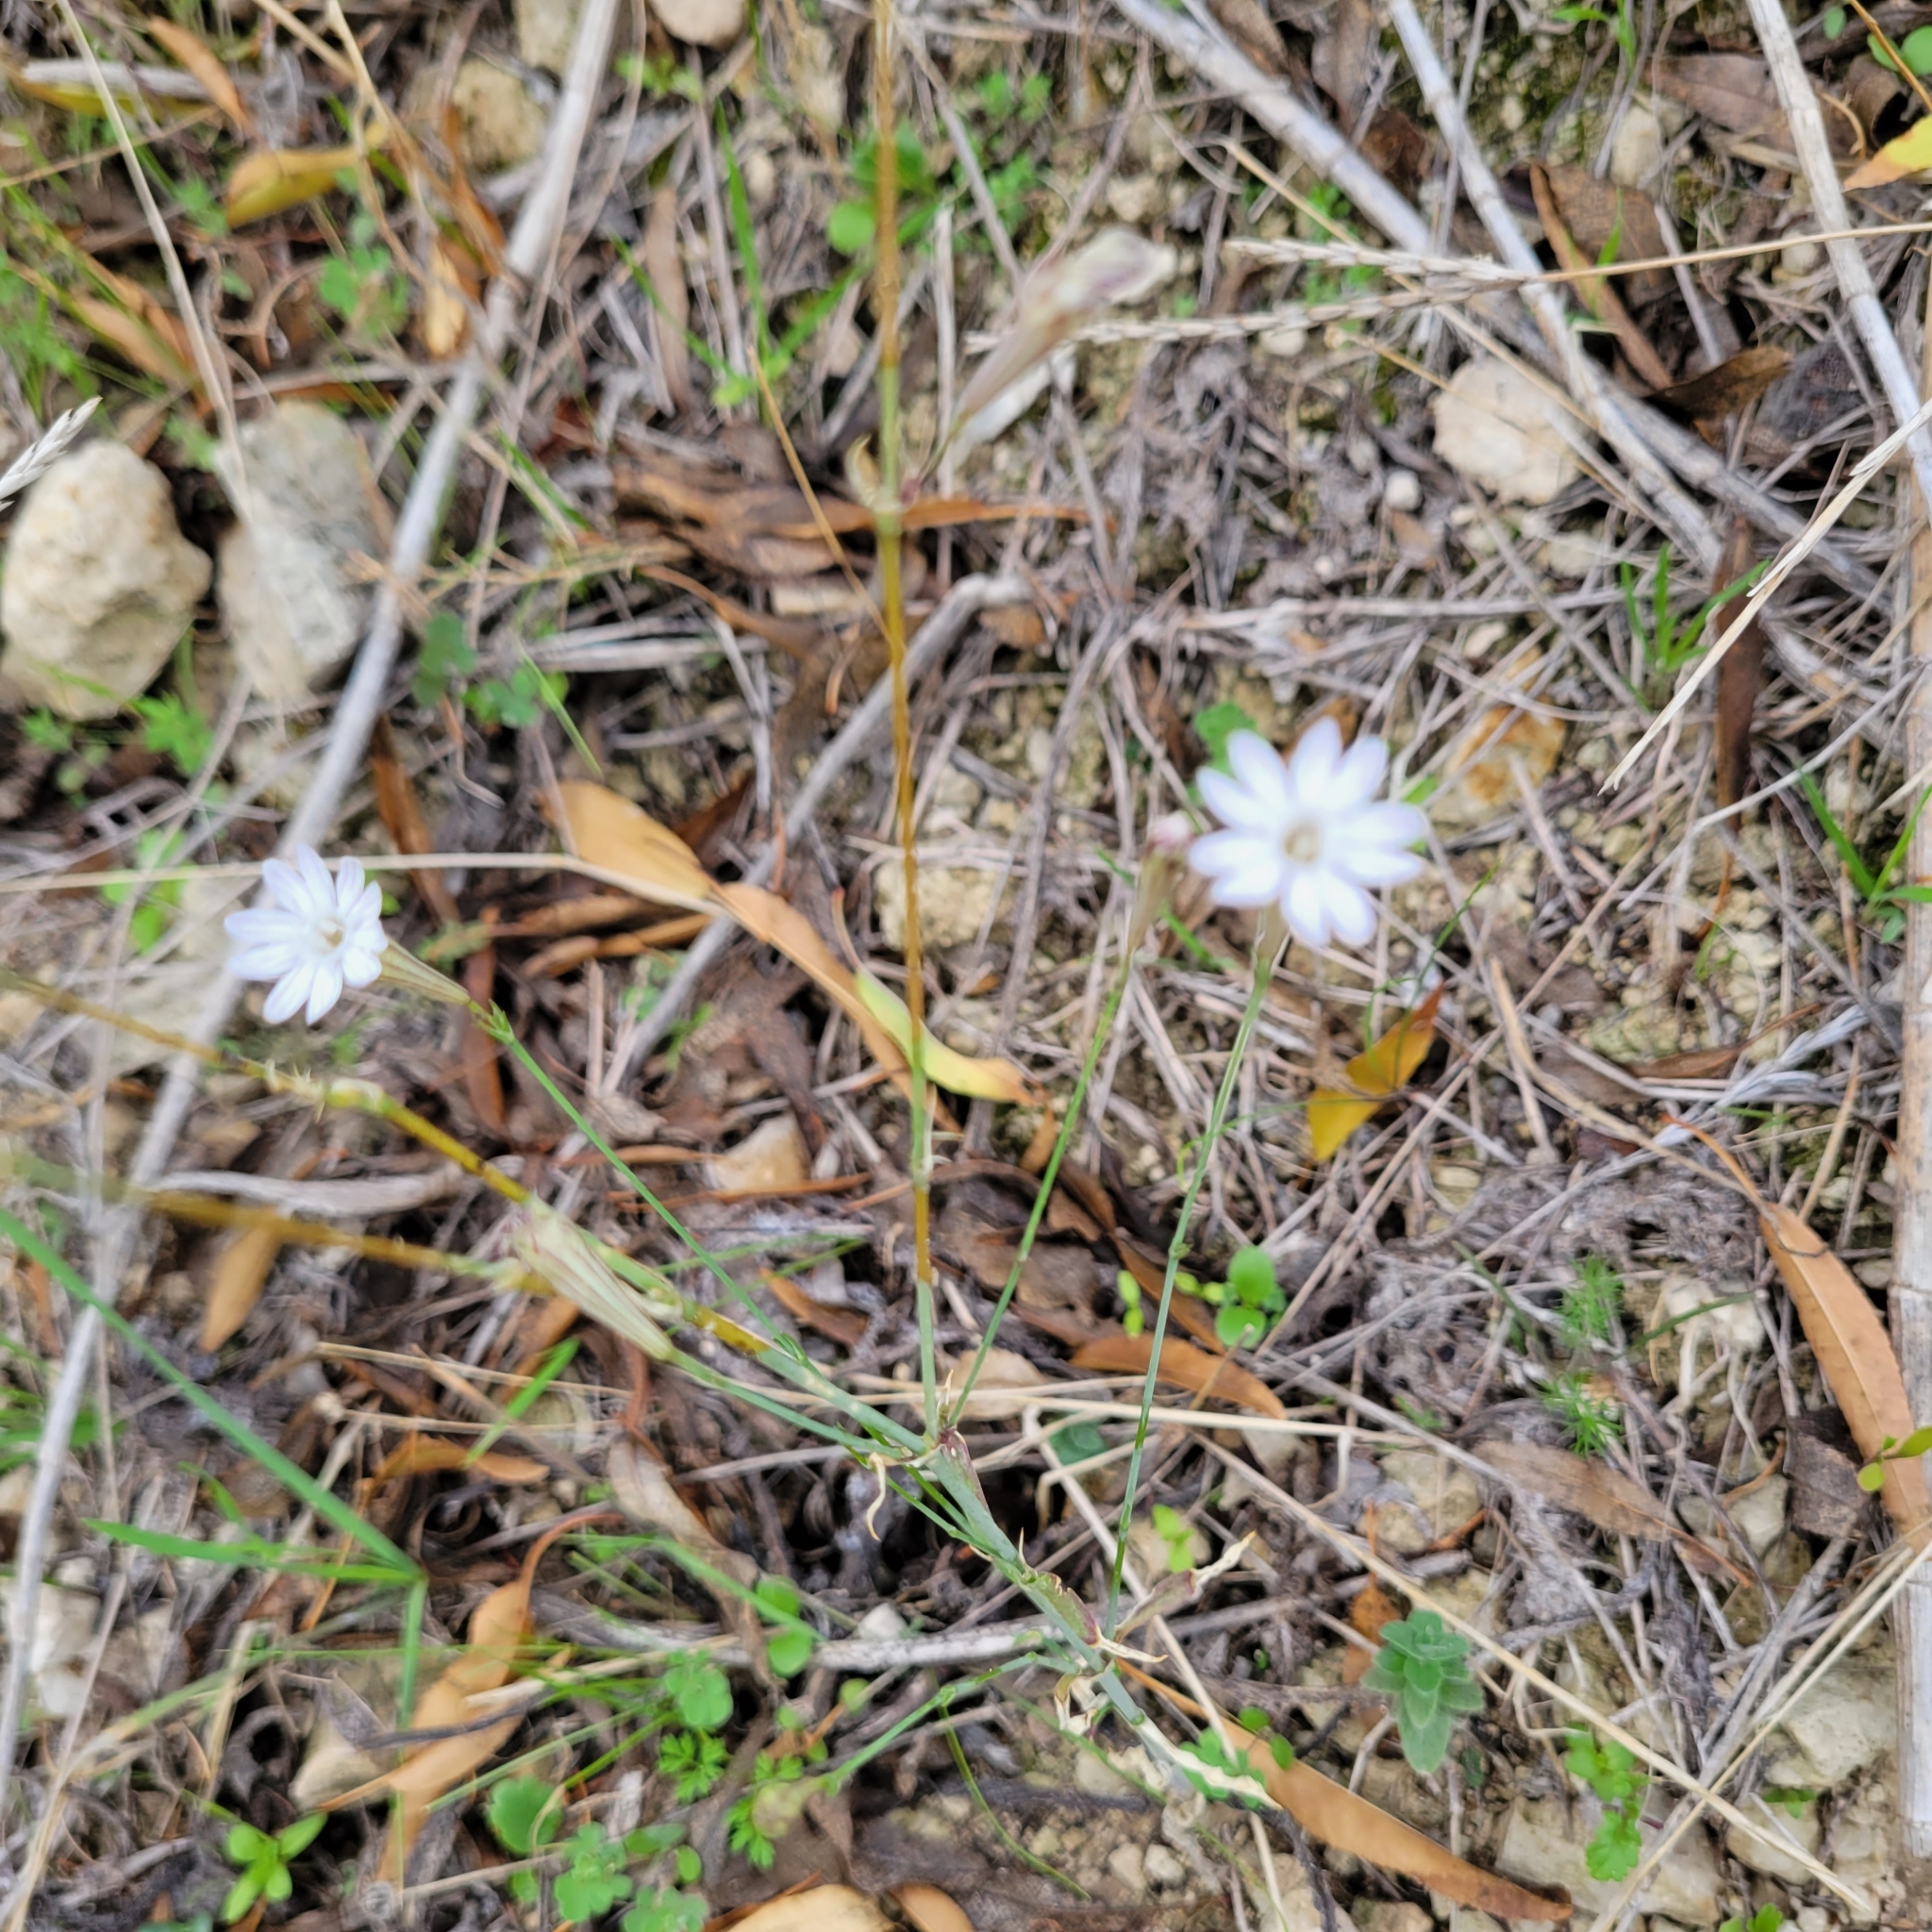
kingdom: Plantae
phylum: Tracheophyta
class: Magnoliopsida
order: Caryophyllales
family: Caryophyllaceae
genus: Silene
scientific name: Silene reinwardtii
